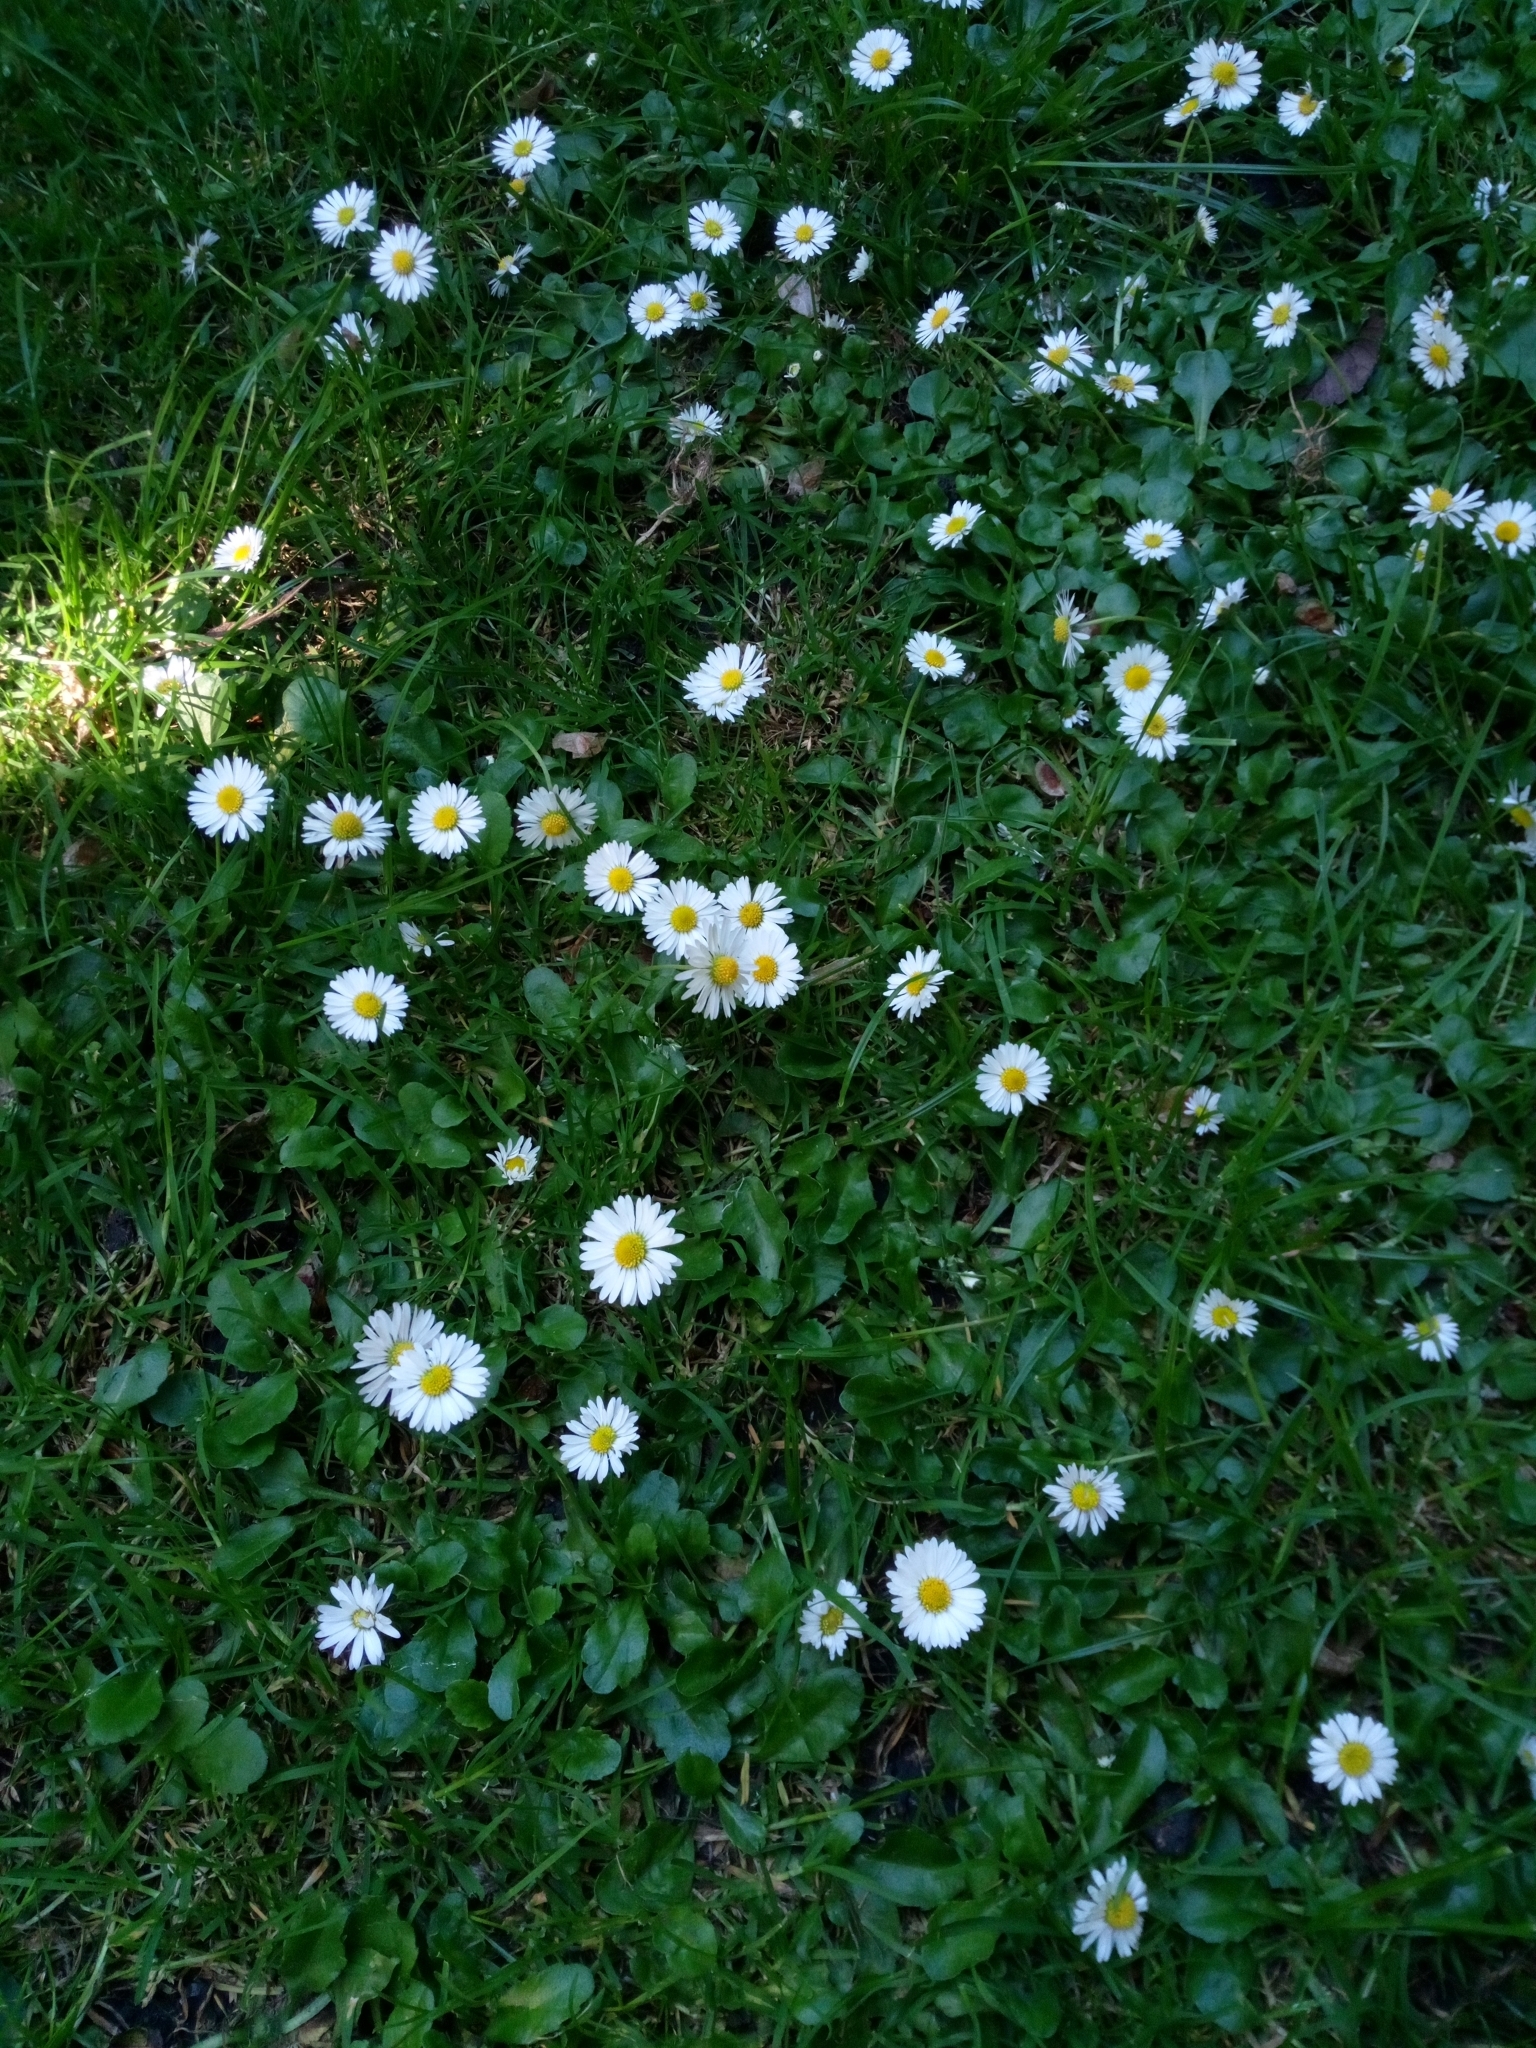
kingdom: Plantae
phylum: Tracheophyta
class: Magnoliopsida
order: Asterales
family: Asteraceae
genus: Bellis
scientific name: Bellis perennis
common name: Lawndaisy
